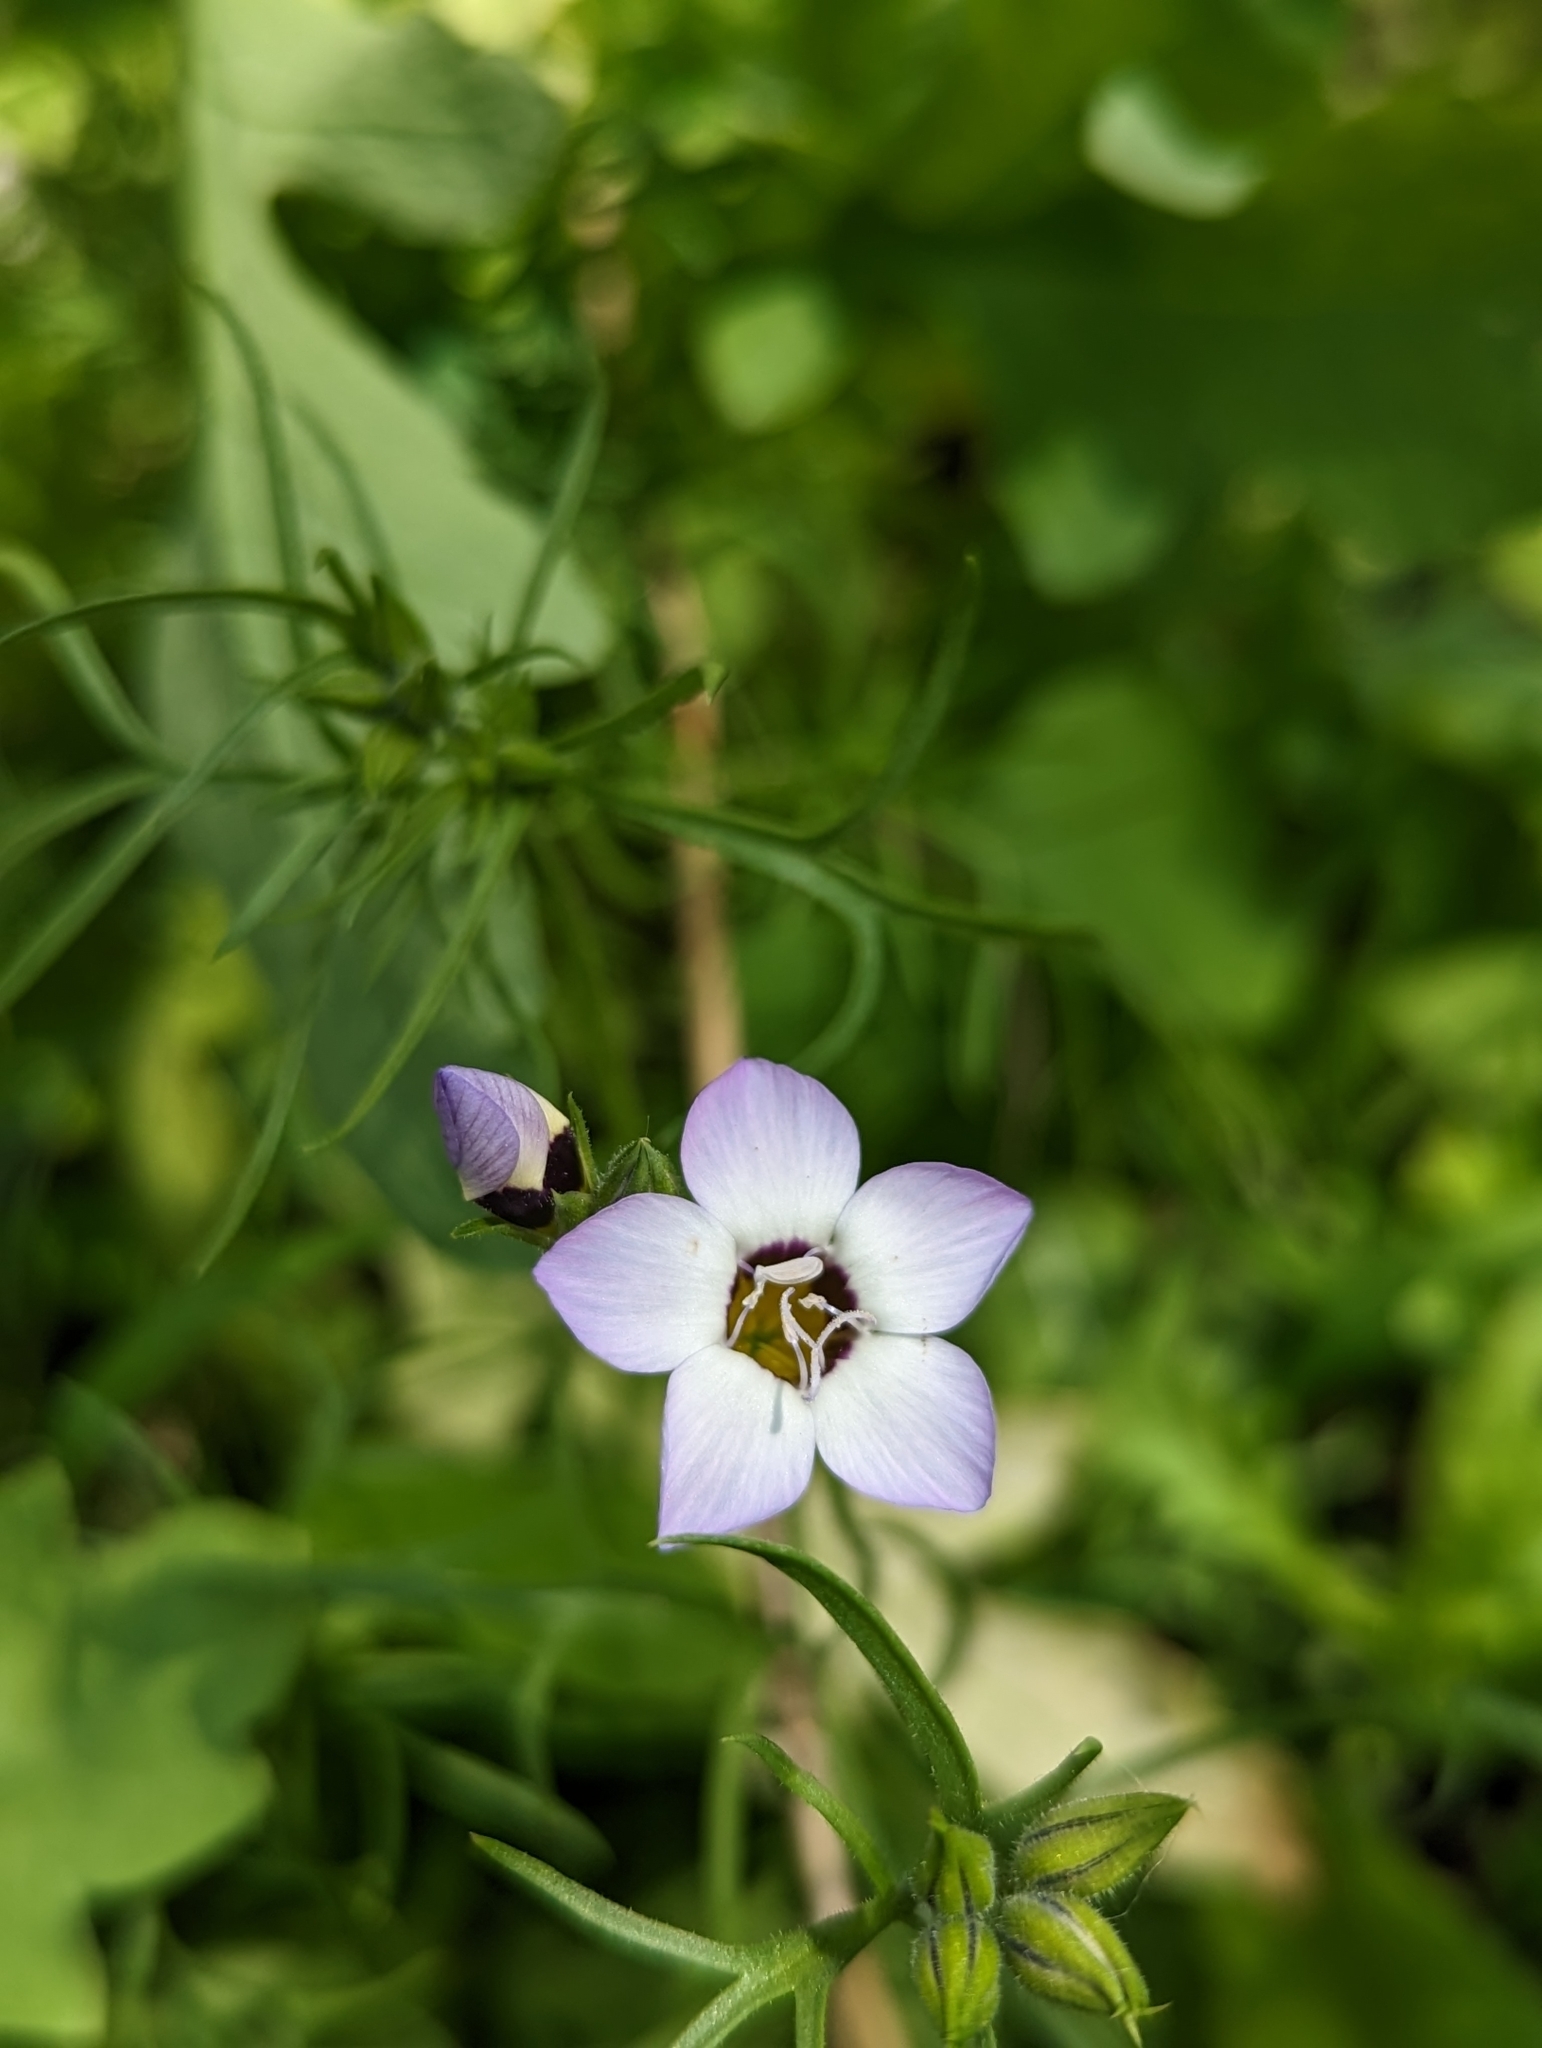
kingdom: Plantae
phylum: Tracheophyta
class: Magnoliopsida
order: Ericales
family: Polemoniaceae
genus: Gilia
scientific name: Gilia tricolor
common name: Bird's-eyes
